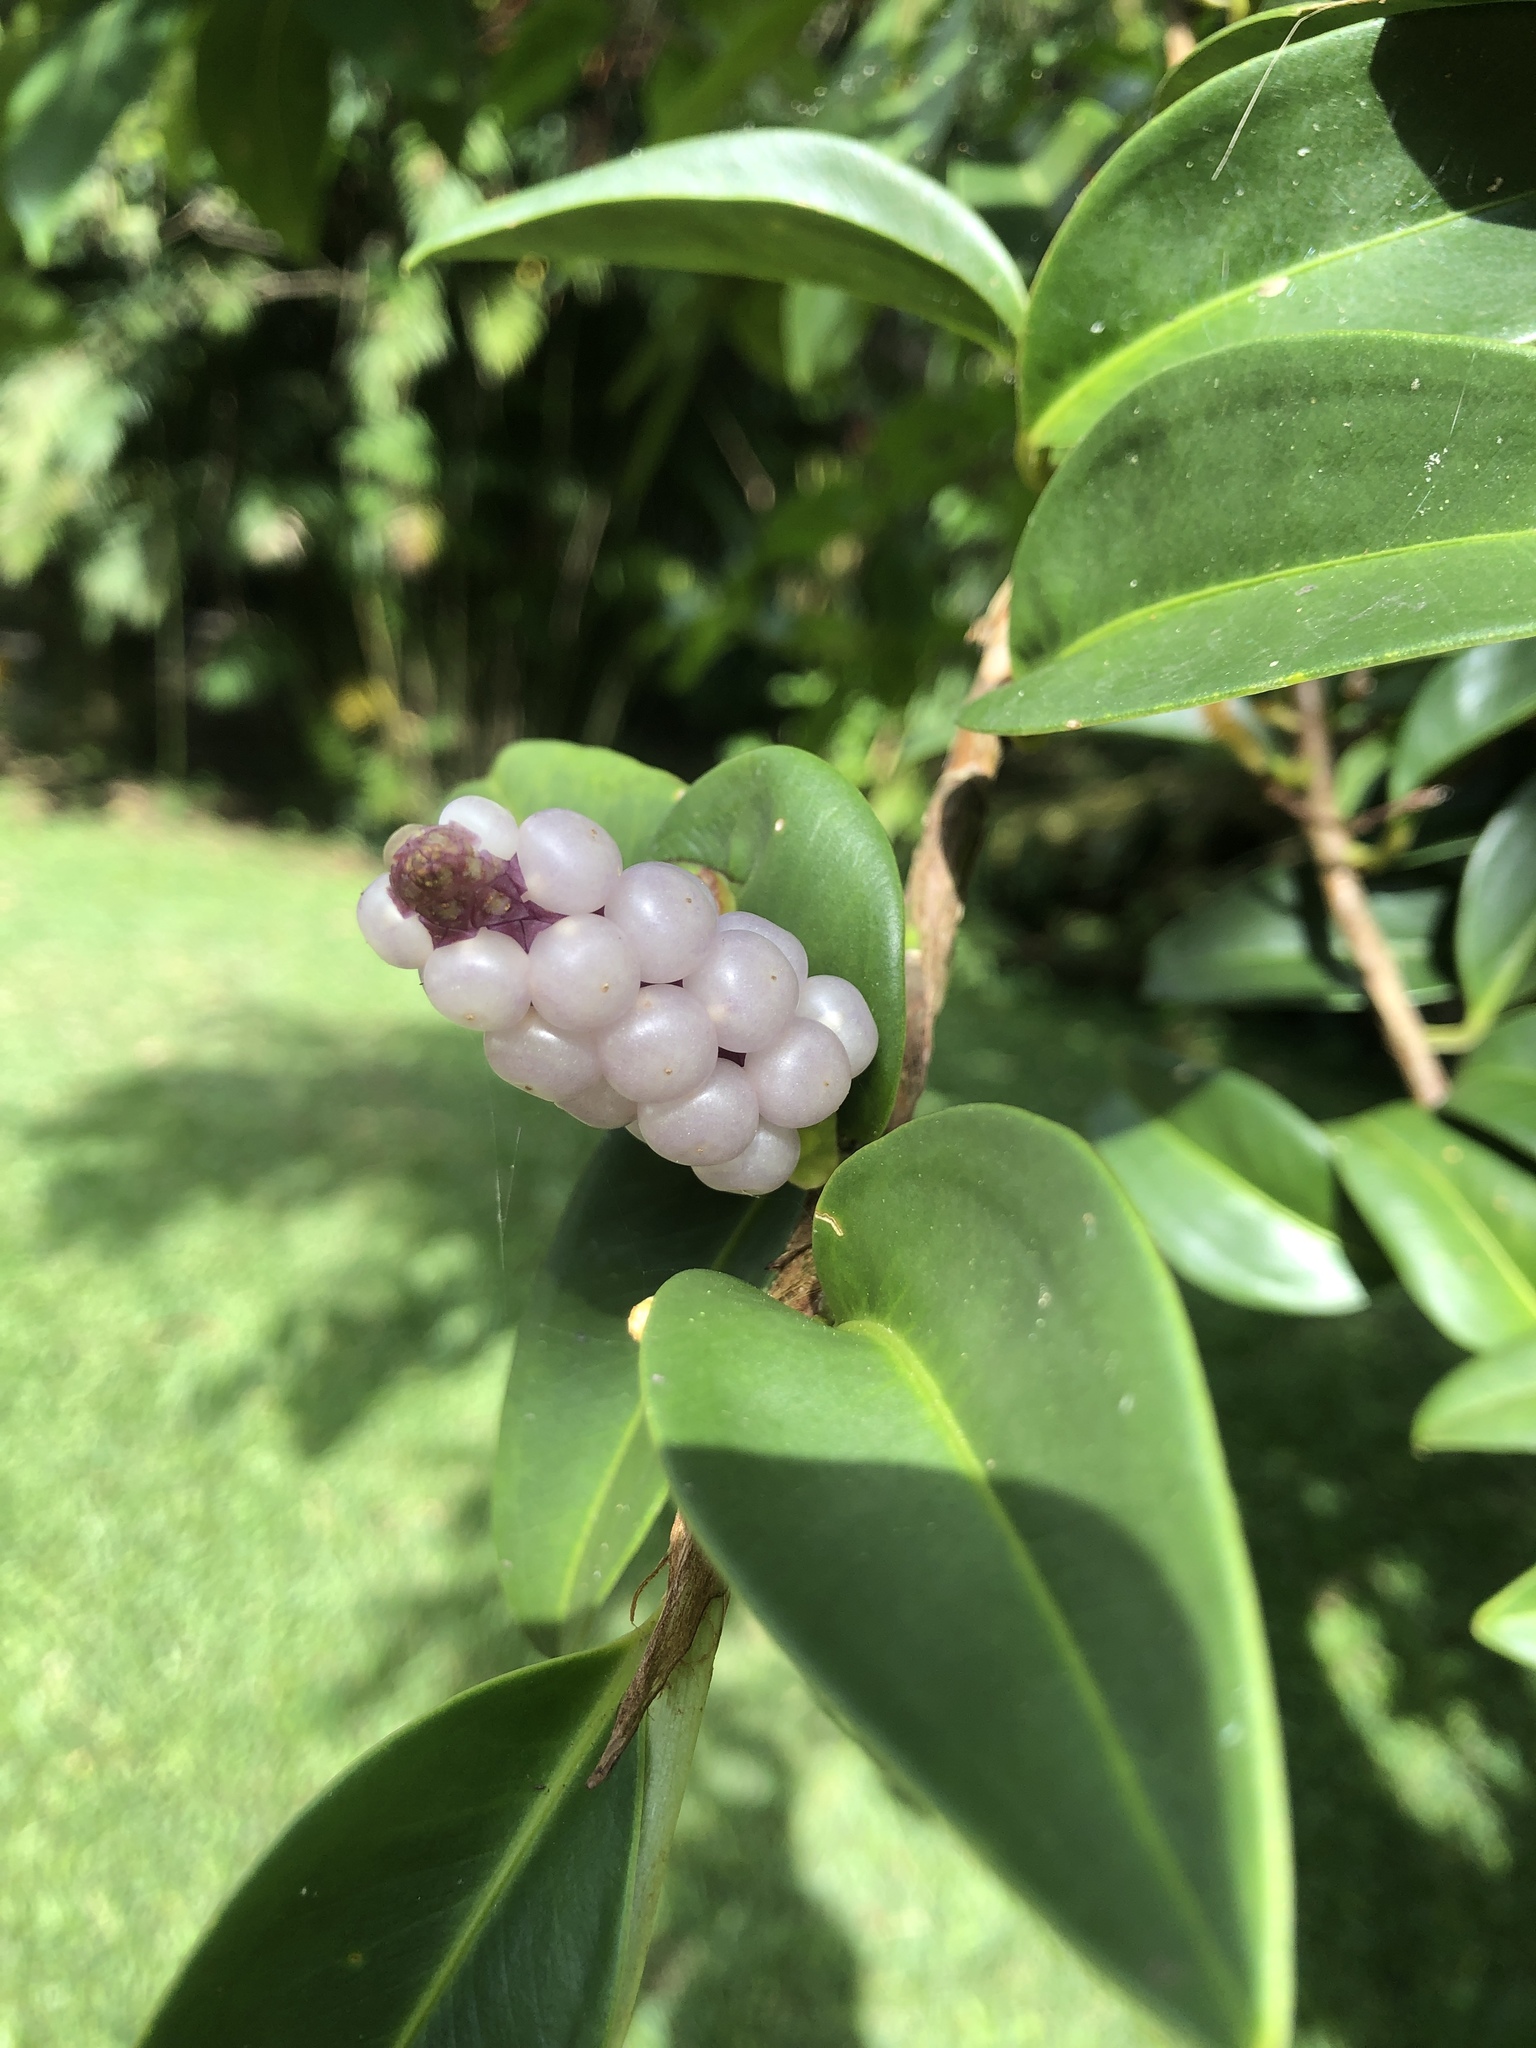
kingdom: Plantae
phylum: Tracheophyta
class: Liliopsida
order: Alismatales
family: Araceae
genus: Anthurium
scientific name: Anthurium scandens
